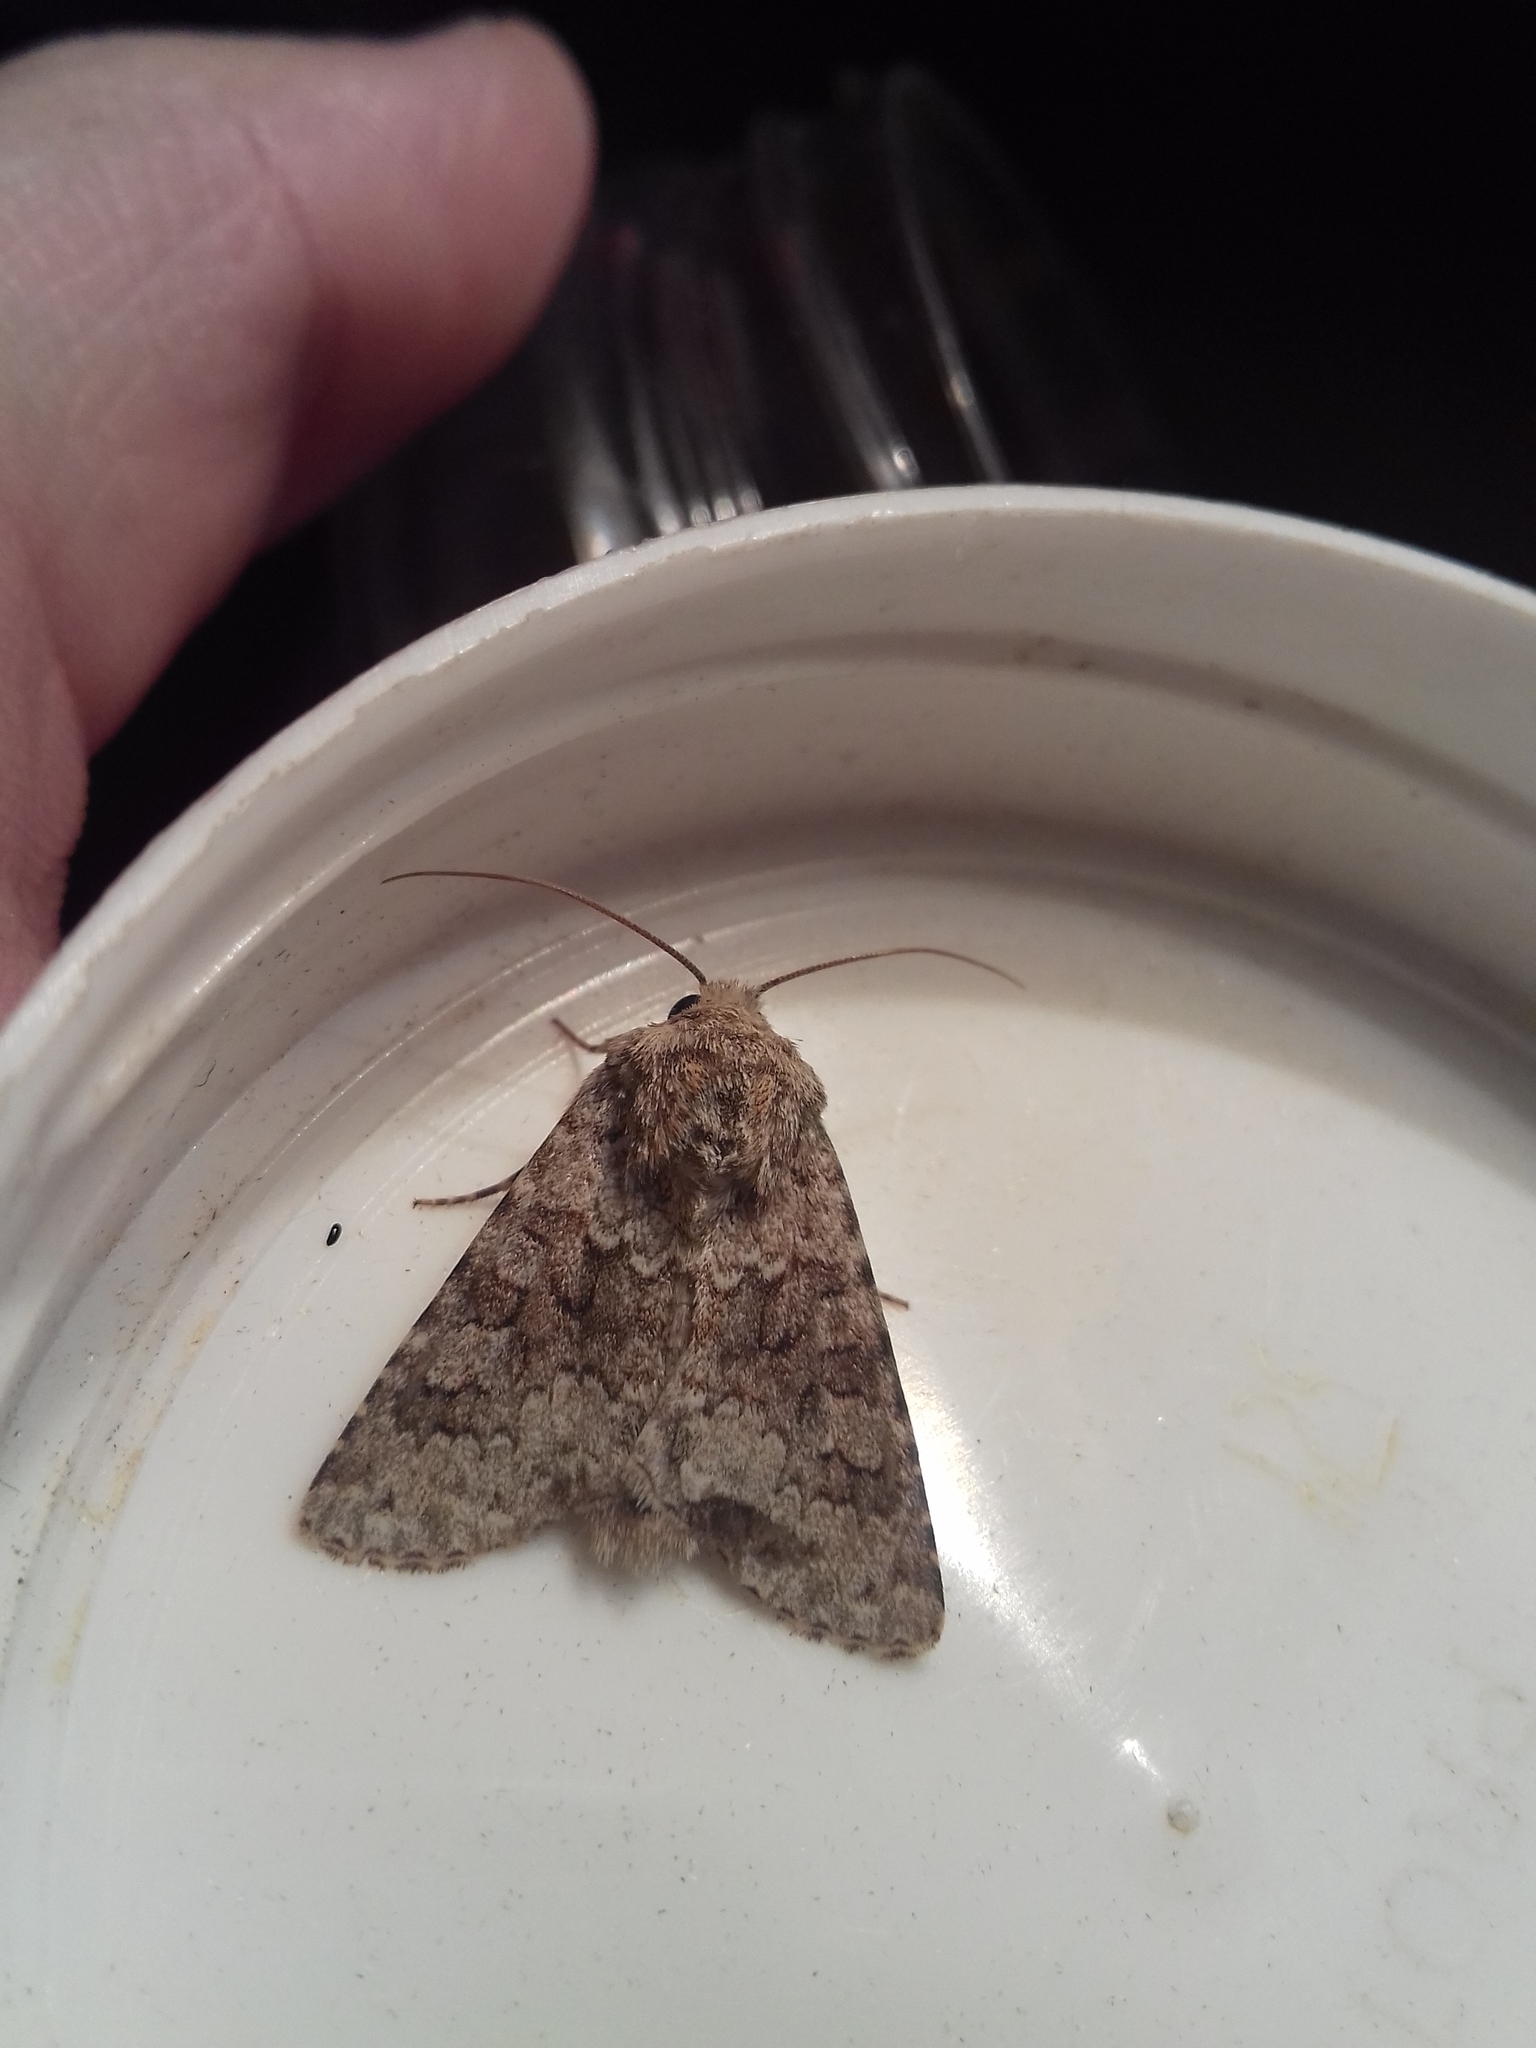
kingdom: Animalia
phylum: Arthropoda
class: Insecta
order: Lepidoptera
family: Noctuidae
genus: Hecatera
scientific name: Hecatera dysodea
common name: Small ranunculus
